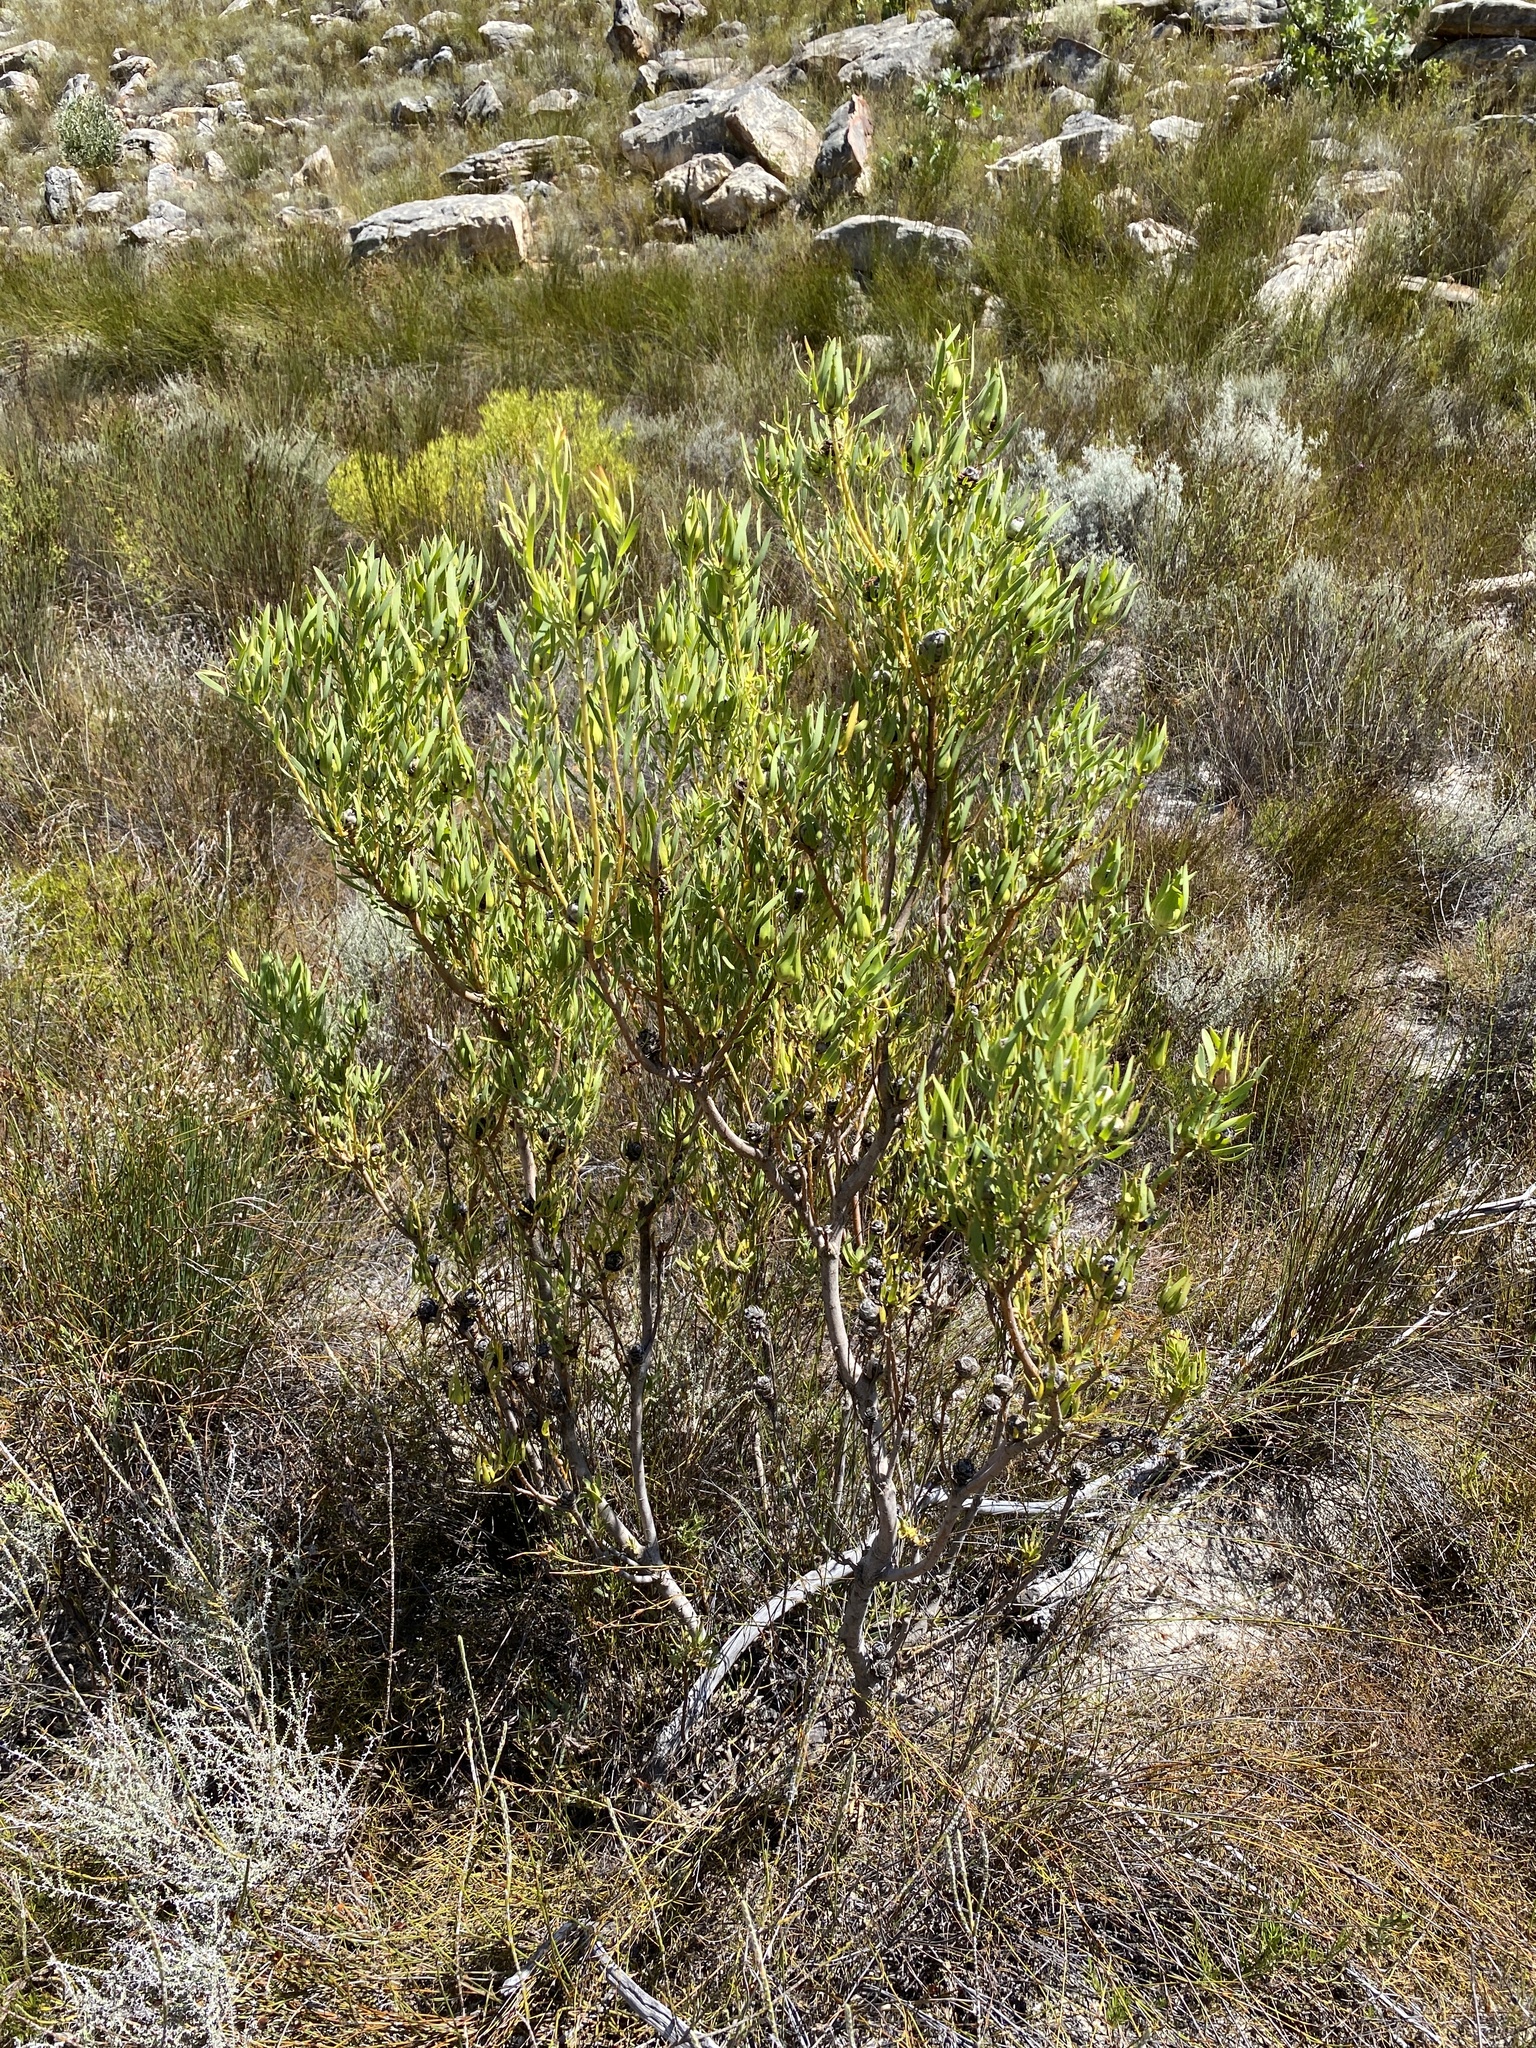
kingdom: Plantae
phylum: Tracheophyta
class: Magnoliopsida
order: Proteales
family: Proteaceae
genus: Leucadendron
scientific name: Leucadendron salignum
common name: Common sunshine conebush
